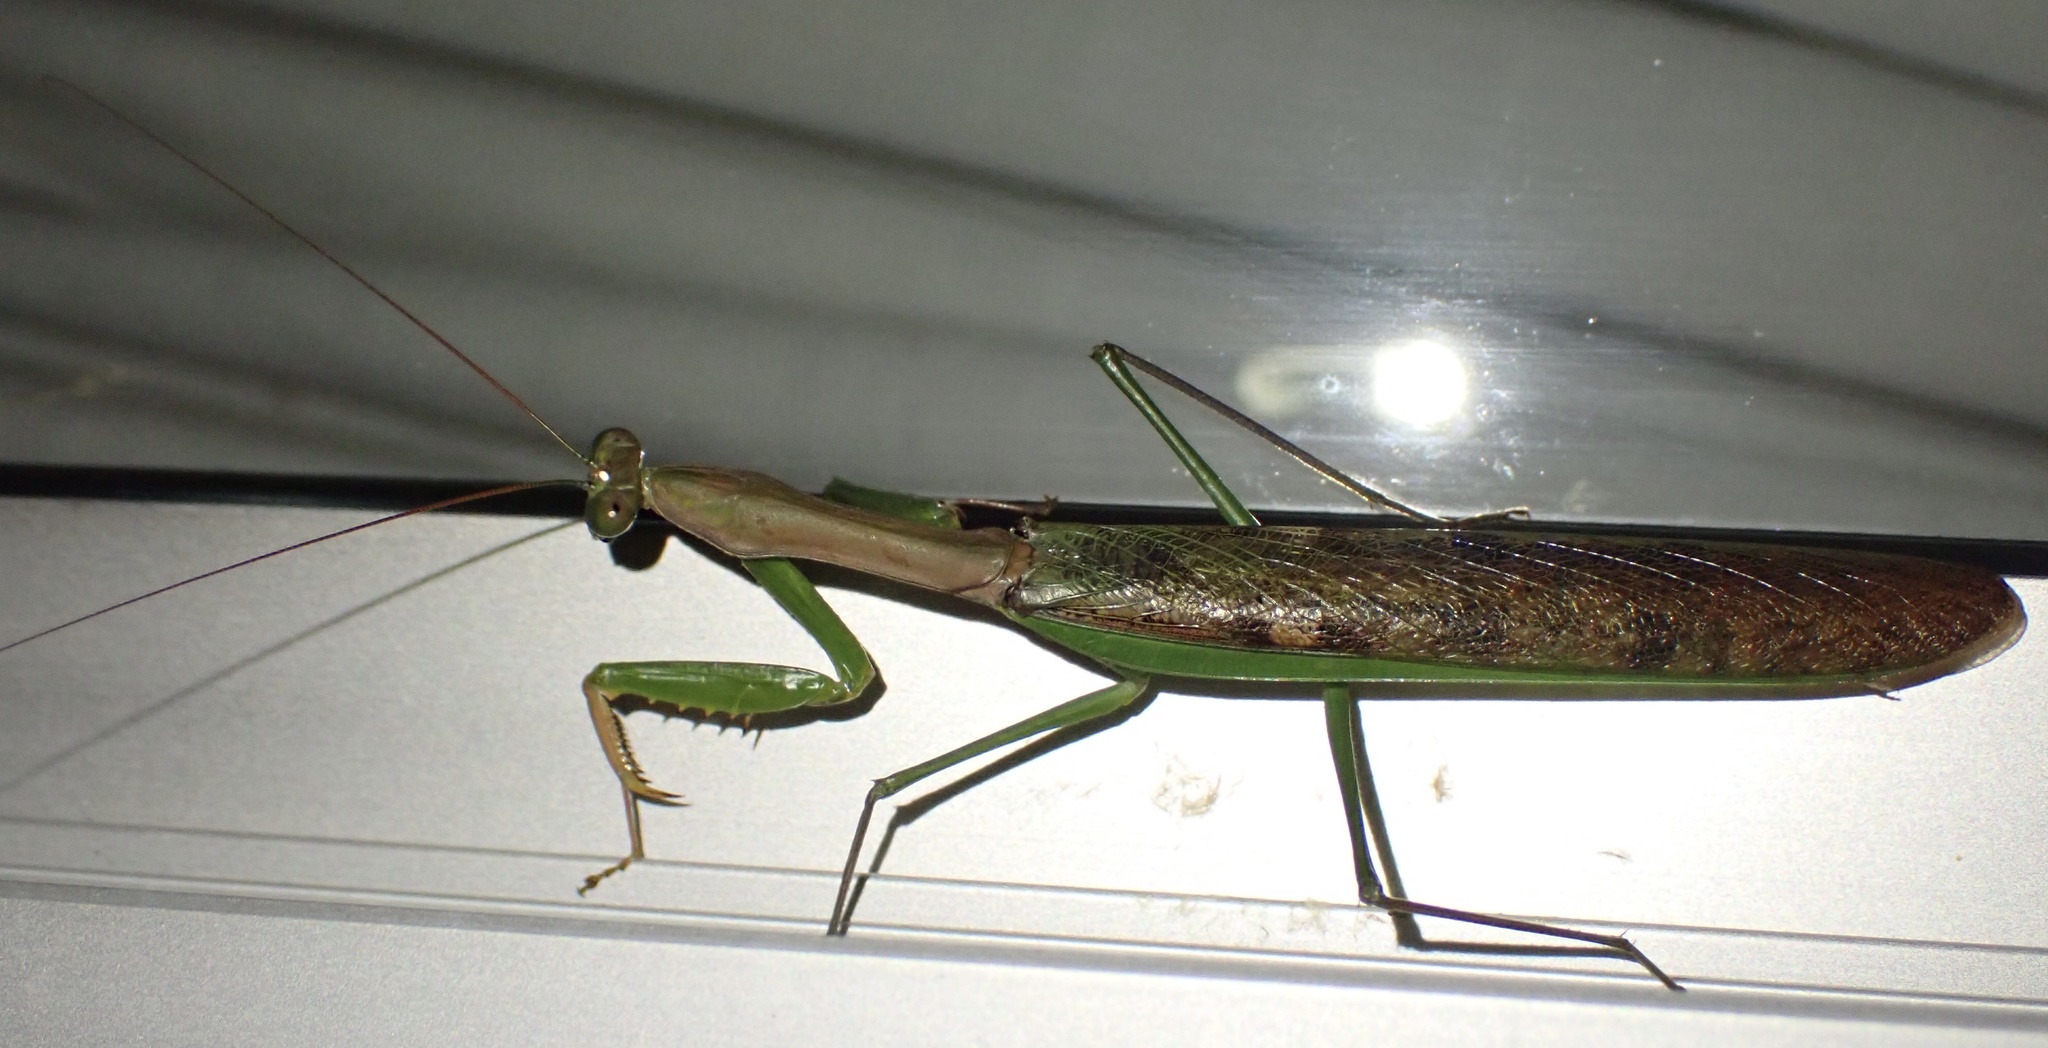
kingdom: Animalia
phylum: Arthropoda
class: Insecta
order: Mantodea
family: Mantidae
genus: Polyspilota
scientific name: Polyspilota aeruginosa
